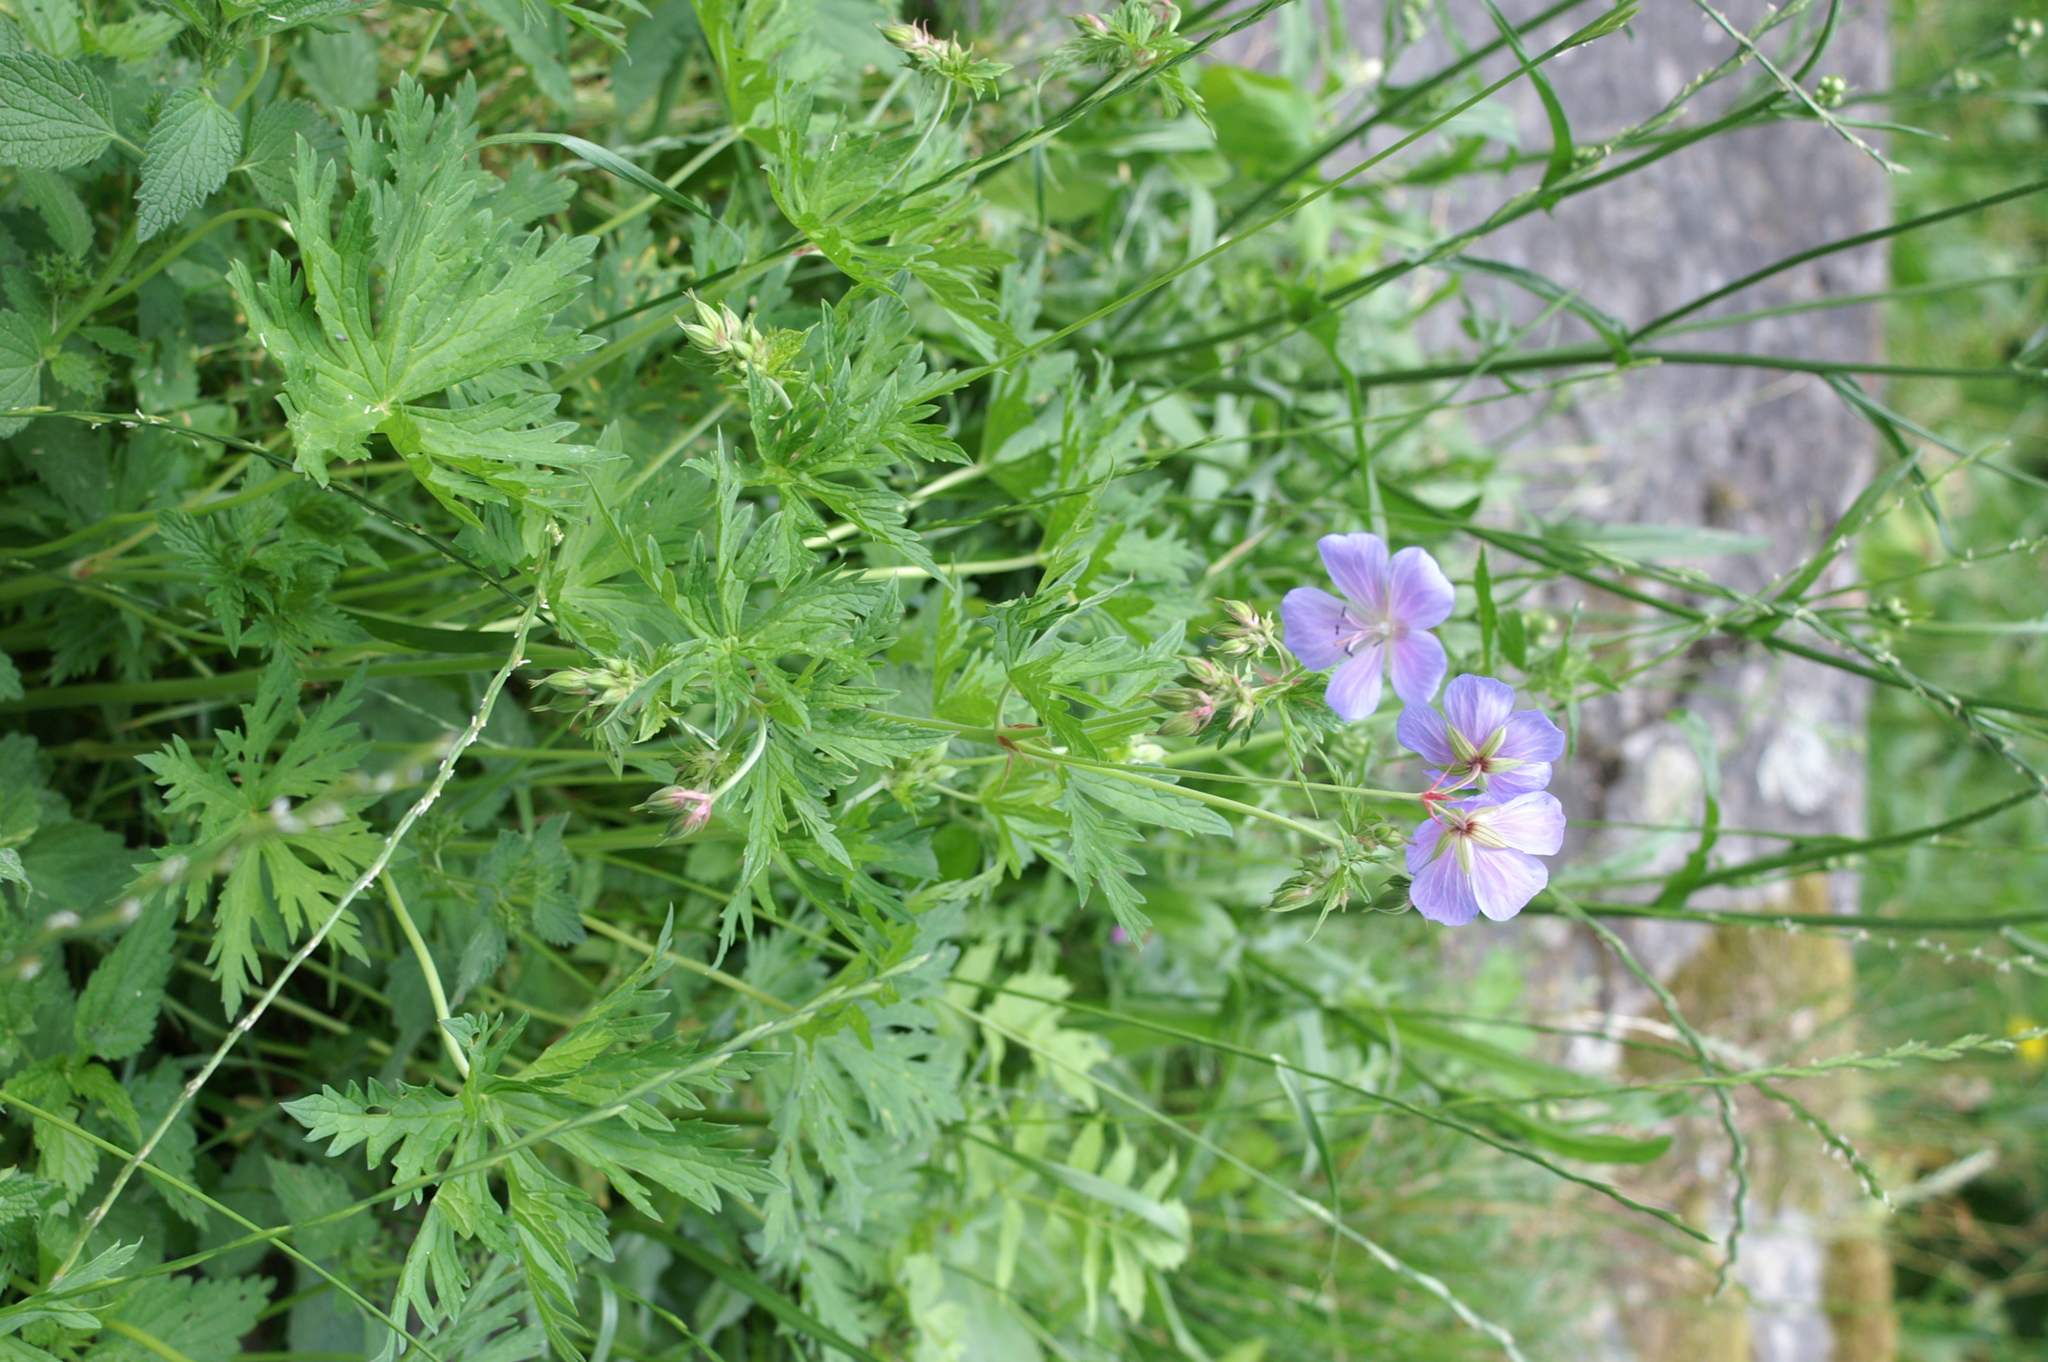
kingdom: Plantae
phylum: Tracheophyta
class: Magnoliopsida
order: Geraniales
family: Geraniaceae
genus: Geranium
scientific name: Geranium pratense
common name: Meadow crane's-bill
